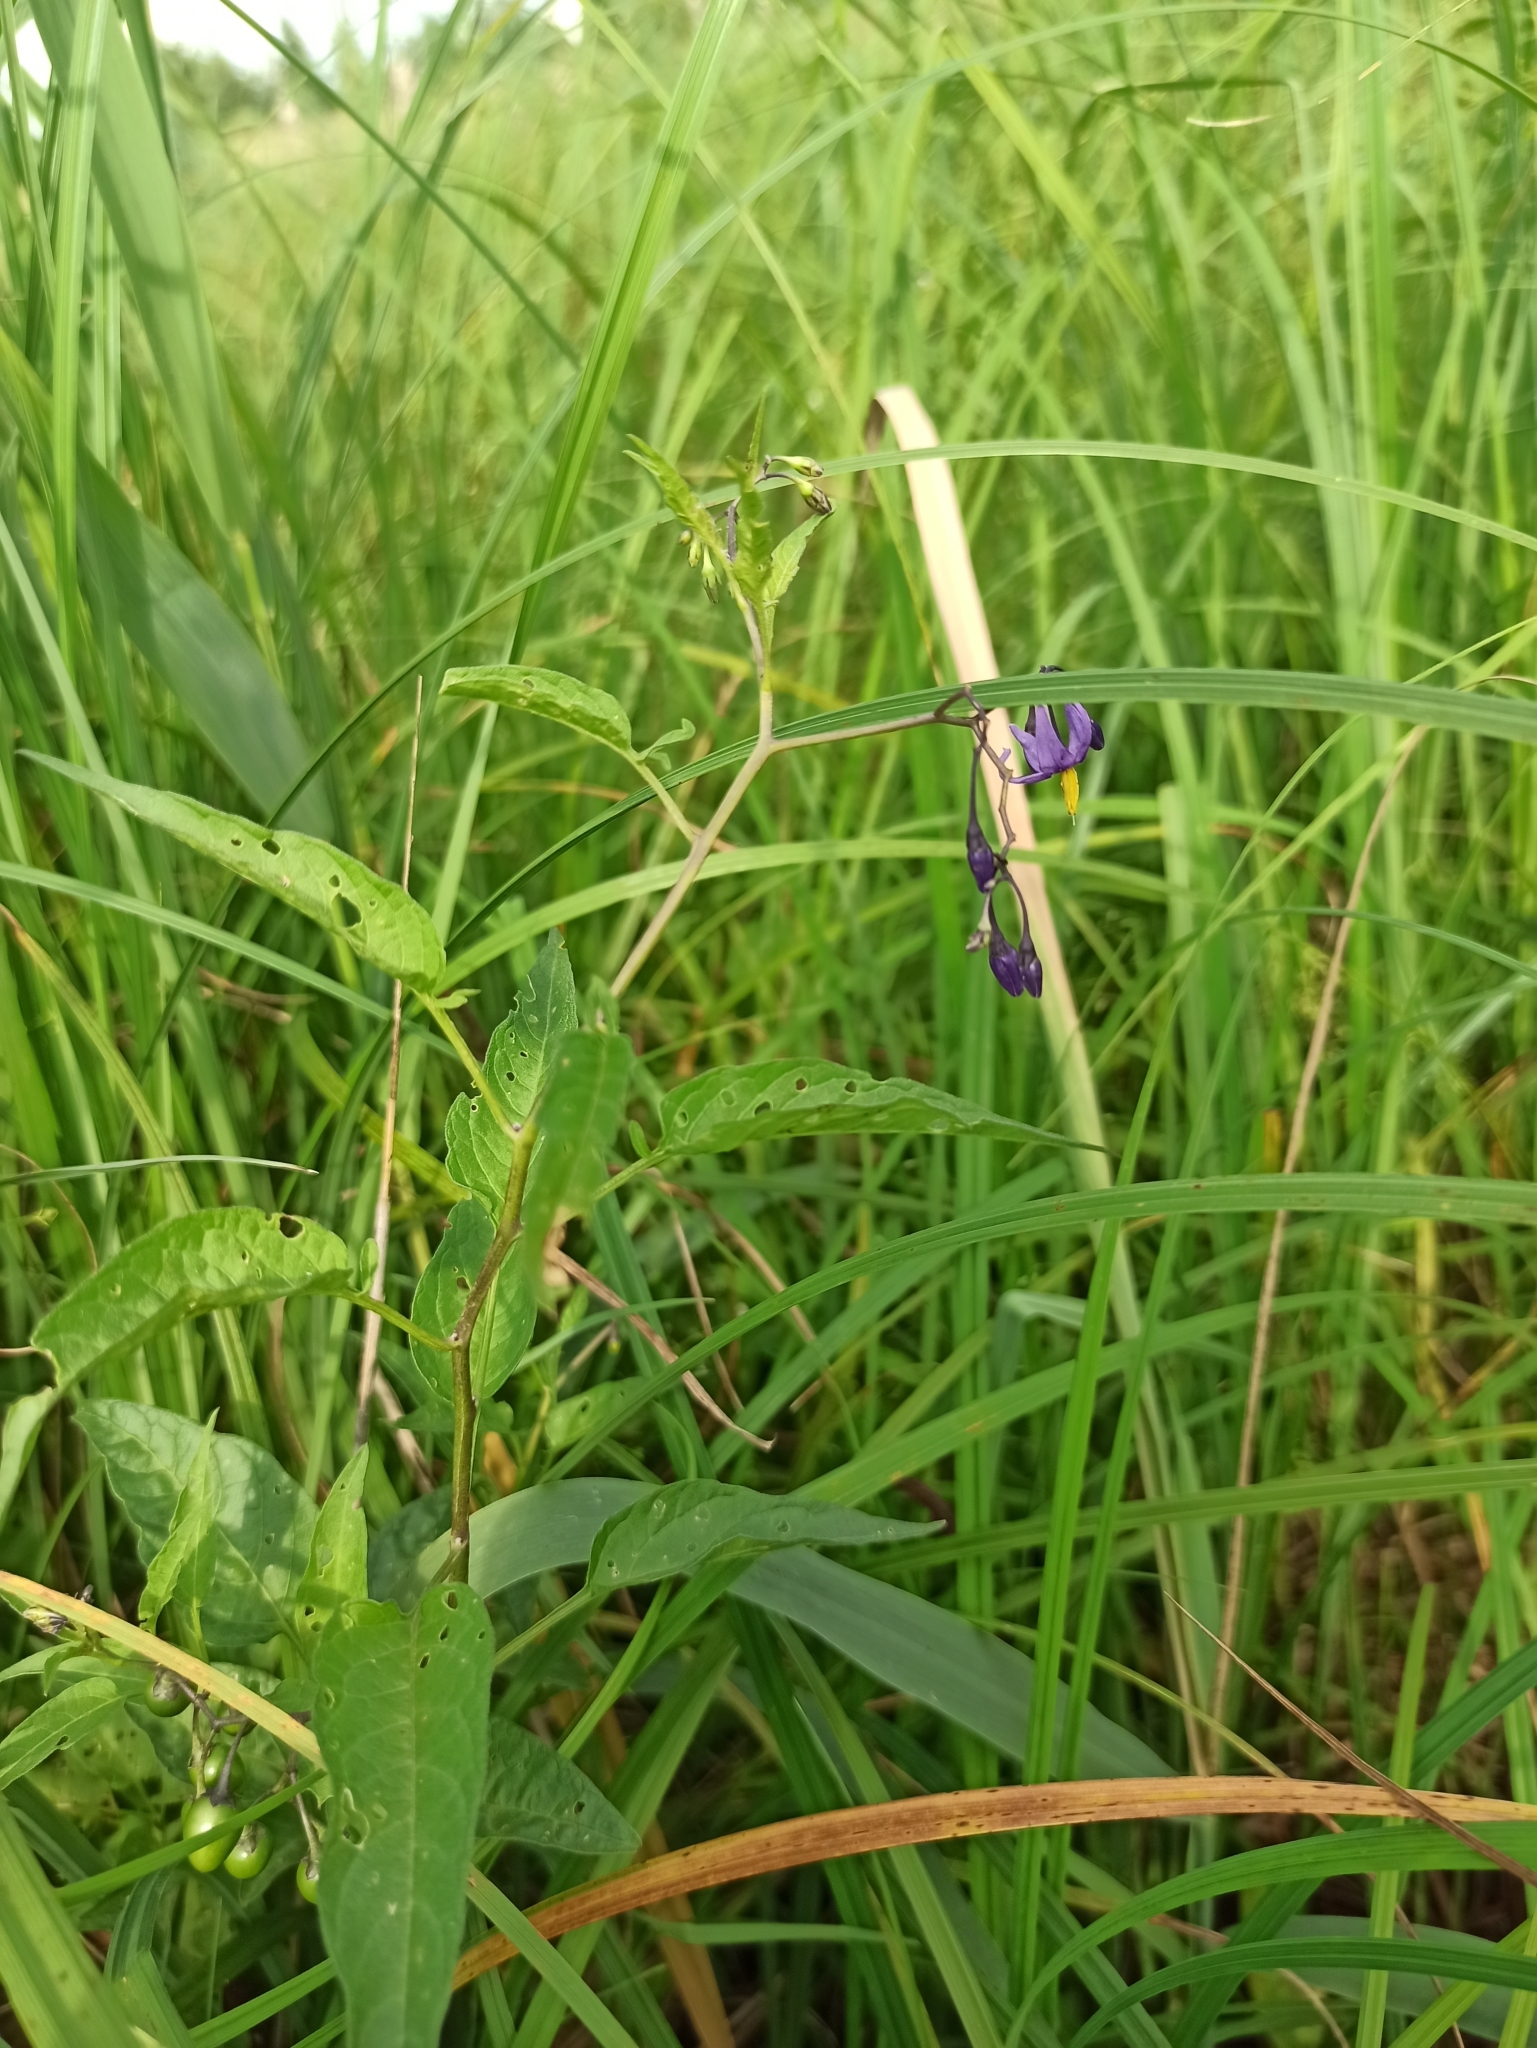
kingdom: Plantae
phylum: Tracheophyta
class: Magnoliopsida
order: Solanales
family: Solanaceae
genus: Solanum
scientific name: Solanum dulcamara
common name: Climbing nightshade
